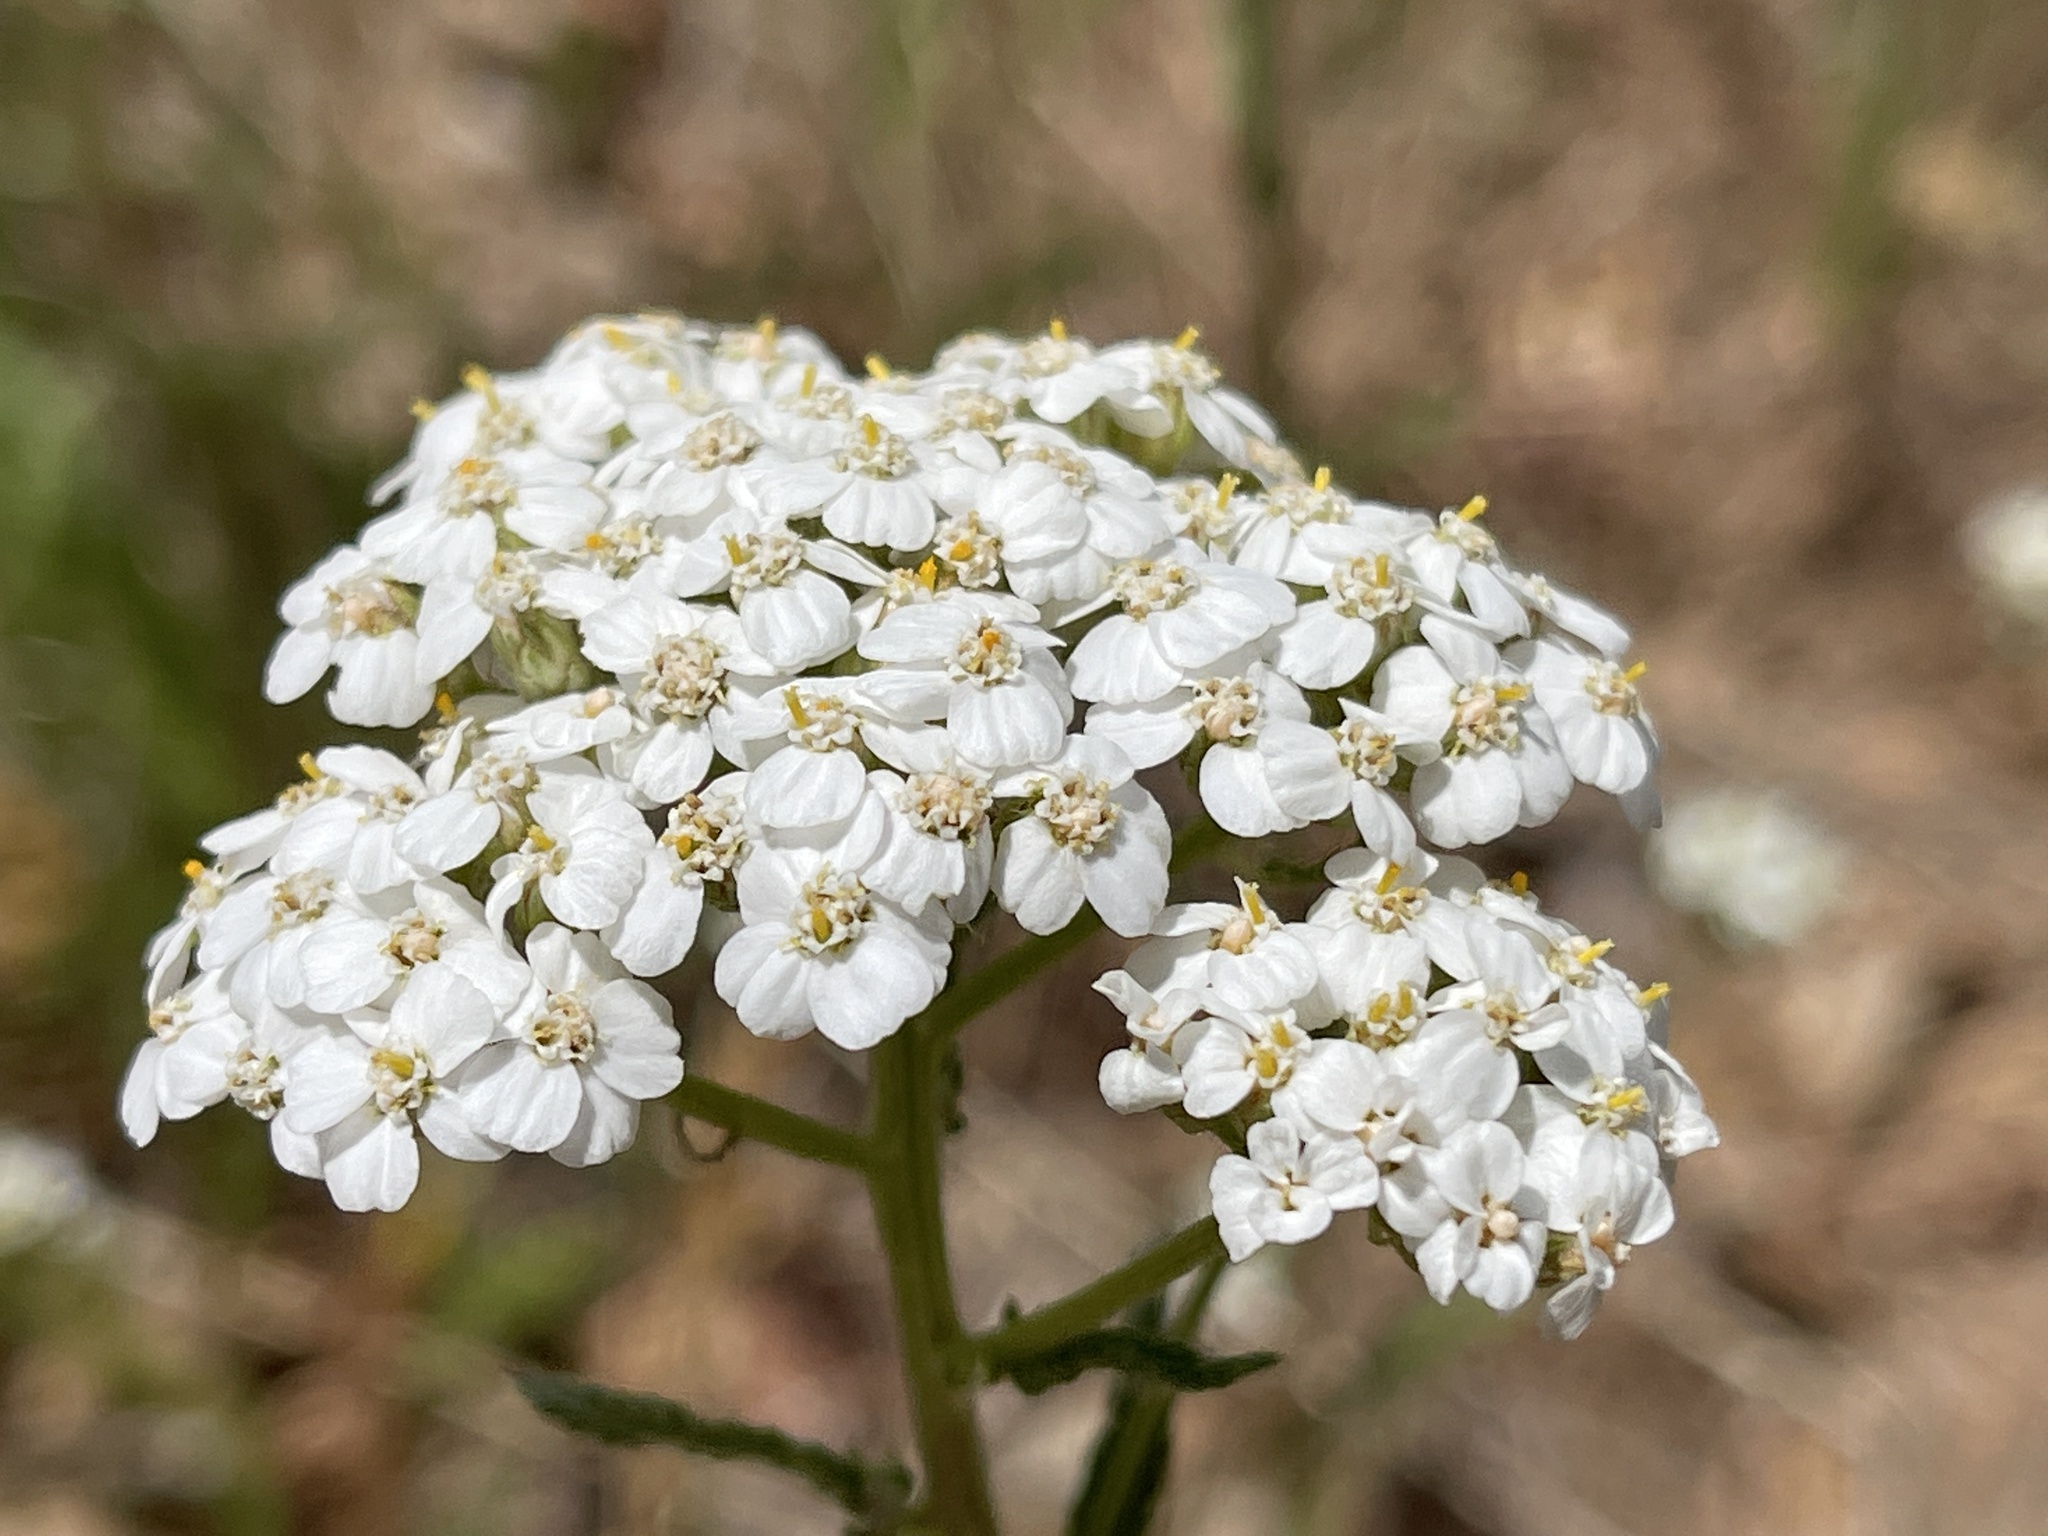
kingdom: Plantae
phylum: Tracheophyta
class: Magnoliopsida
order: Asterales
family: Asteraceae
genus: Achillea
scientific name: Achillea millefolium
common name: Yarrow
